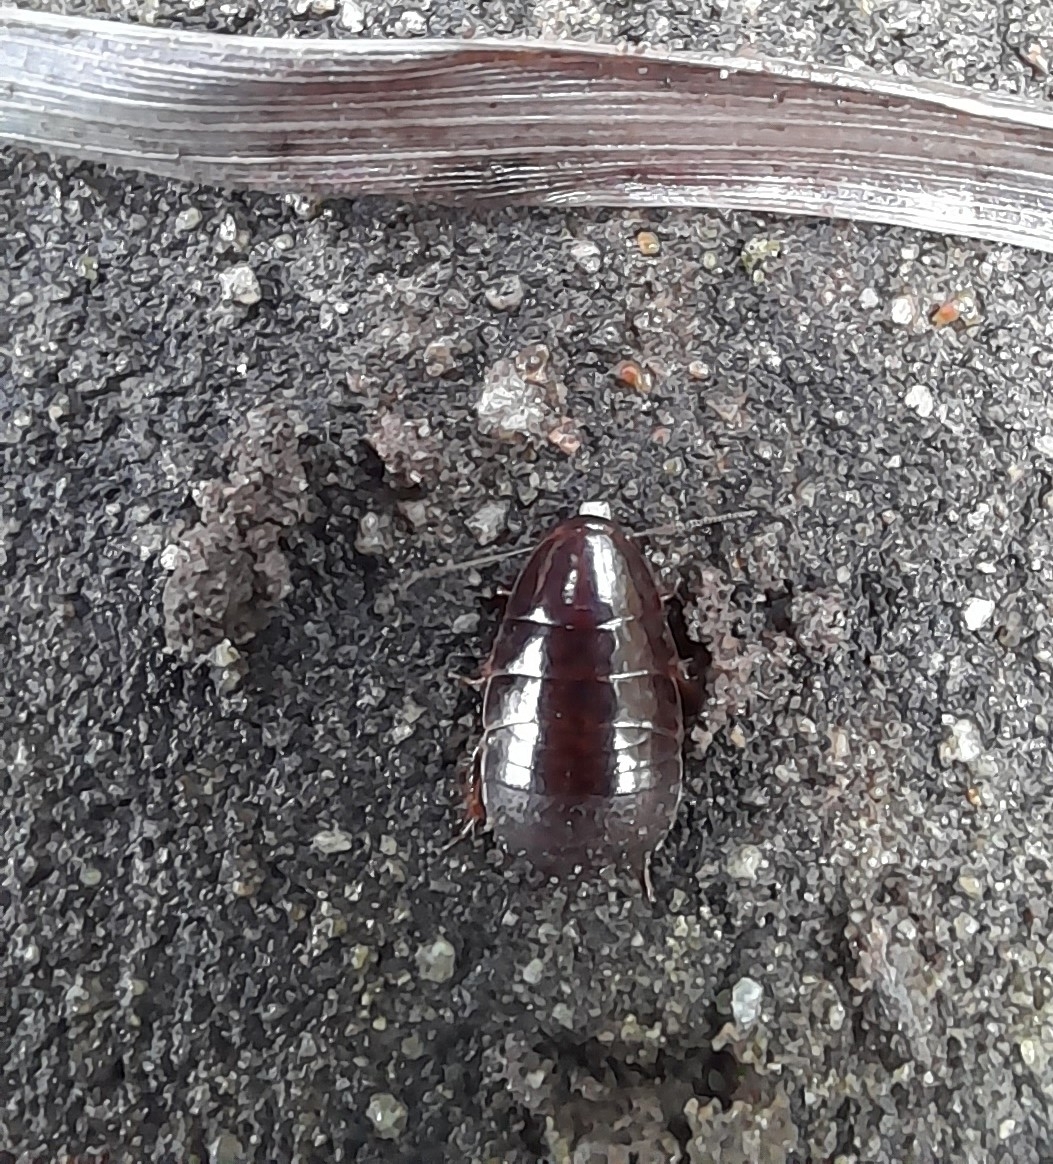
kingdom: Animalia
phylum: Arthropoda
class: Insecta
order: Blattodea
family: Blaberidae
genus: Pycnoscelus
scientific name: Pycnoscelus surinamensis
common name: Surinam cockroach
